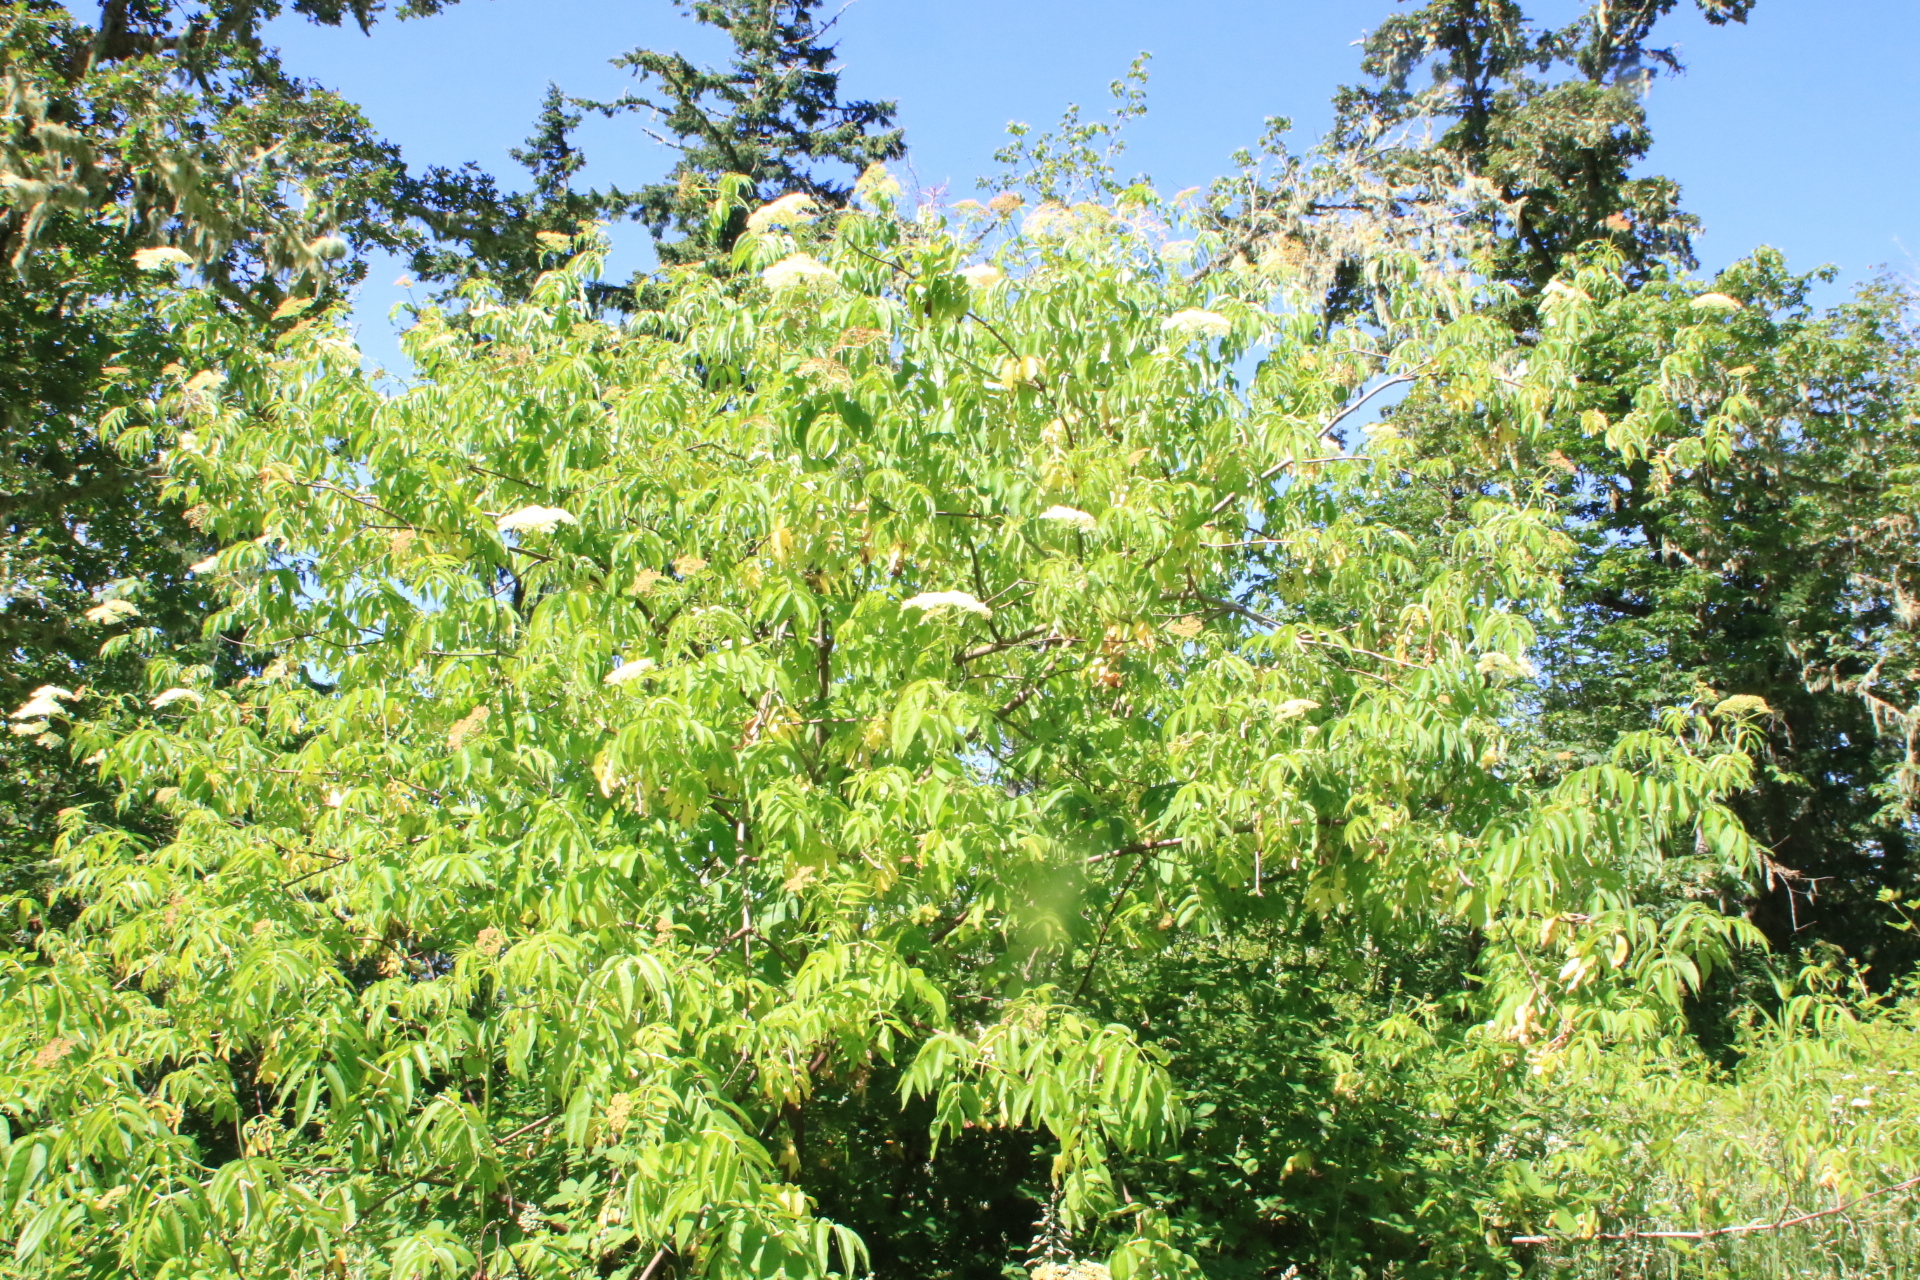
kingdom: Plantae
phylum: Tracheophyta
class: Magnoliopsida
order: Dipsacales
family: Viburnaceae
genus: Sambucus
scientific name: Sambucus cerulea
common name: Blue elder
